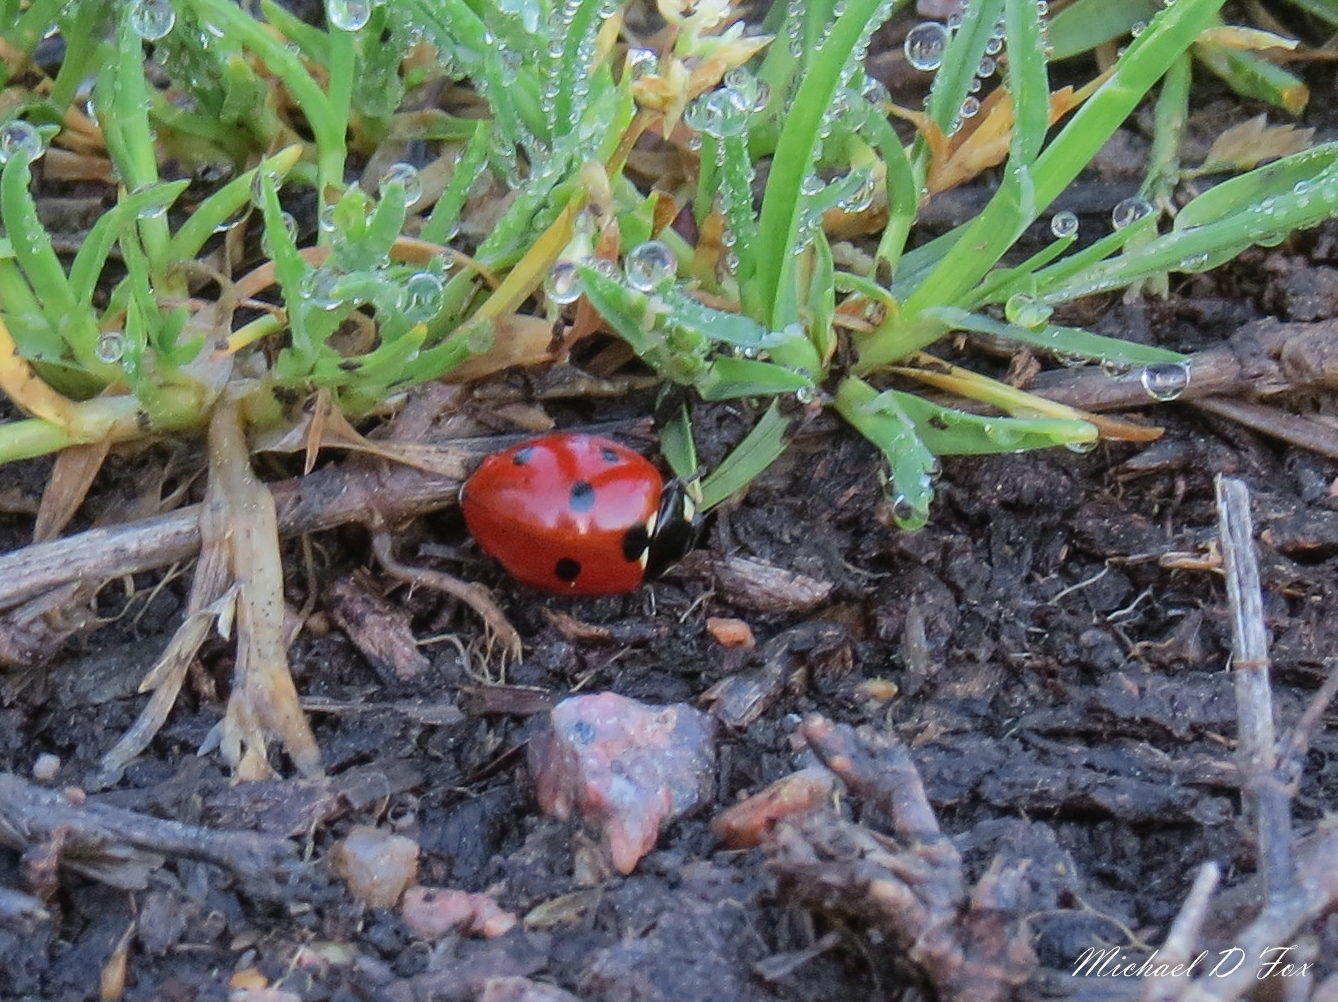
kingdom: Animalia
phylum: Arthropoda
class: Insecta
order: Coleoptera
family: Coccinellidae
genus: Coccinella
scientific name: Coccinella septempunctata
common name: Sevenspotted lady beetle
